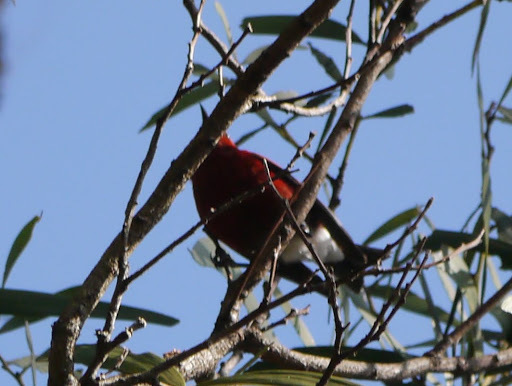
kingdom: Animalia
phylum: Chordata
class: Aves
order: Passeriformes
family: Fringillidae
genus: Himatione
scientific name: Himatione sanguinea
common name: Apapane
